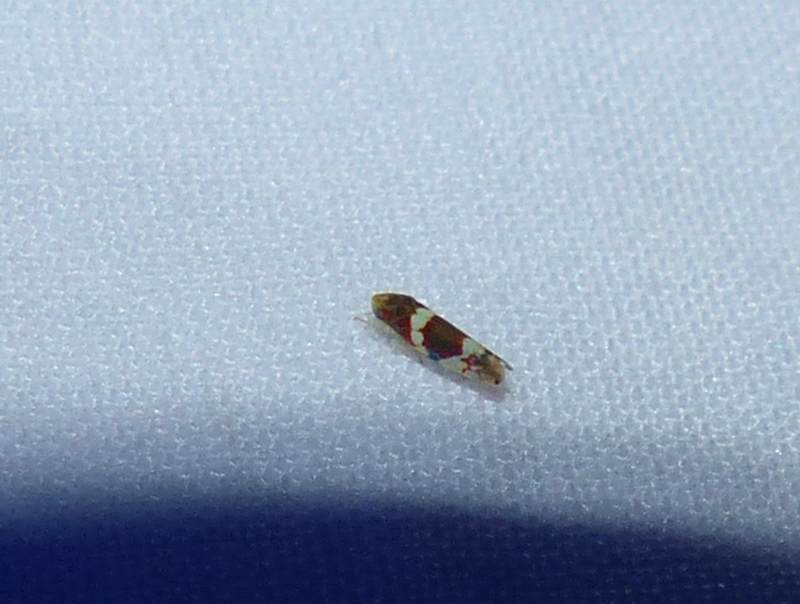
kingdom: Animalia
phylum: Arthropoda
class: Insecta
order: Hemiptera
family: Cicadellidae
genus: Erythroneura
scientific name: Erythroneura vitis
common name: Grapevine leafhopper
